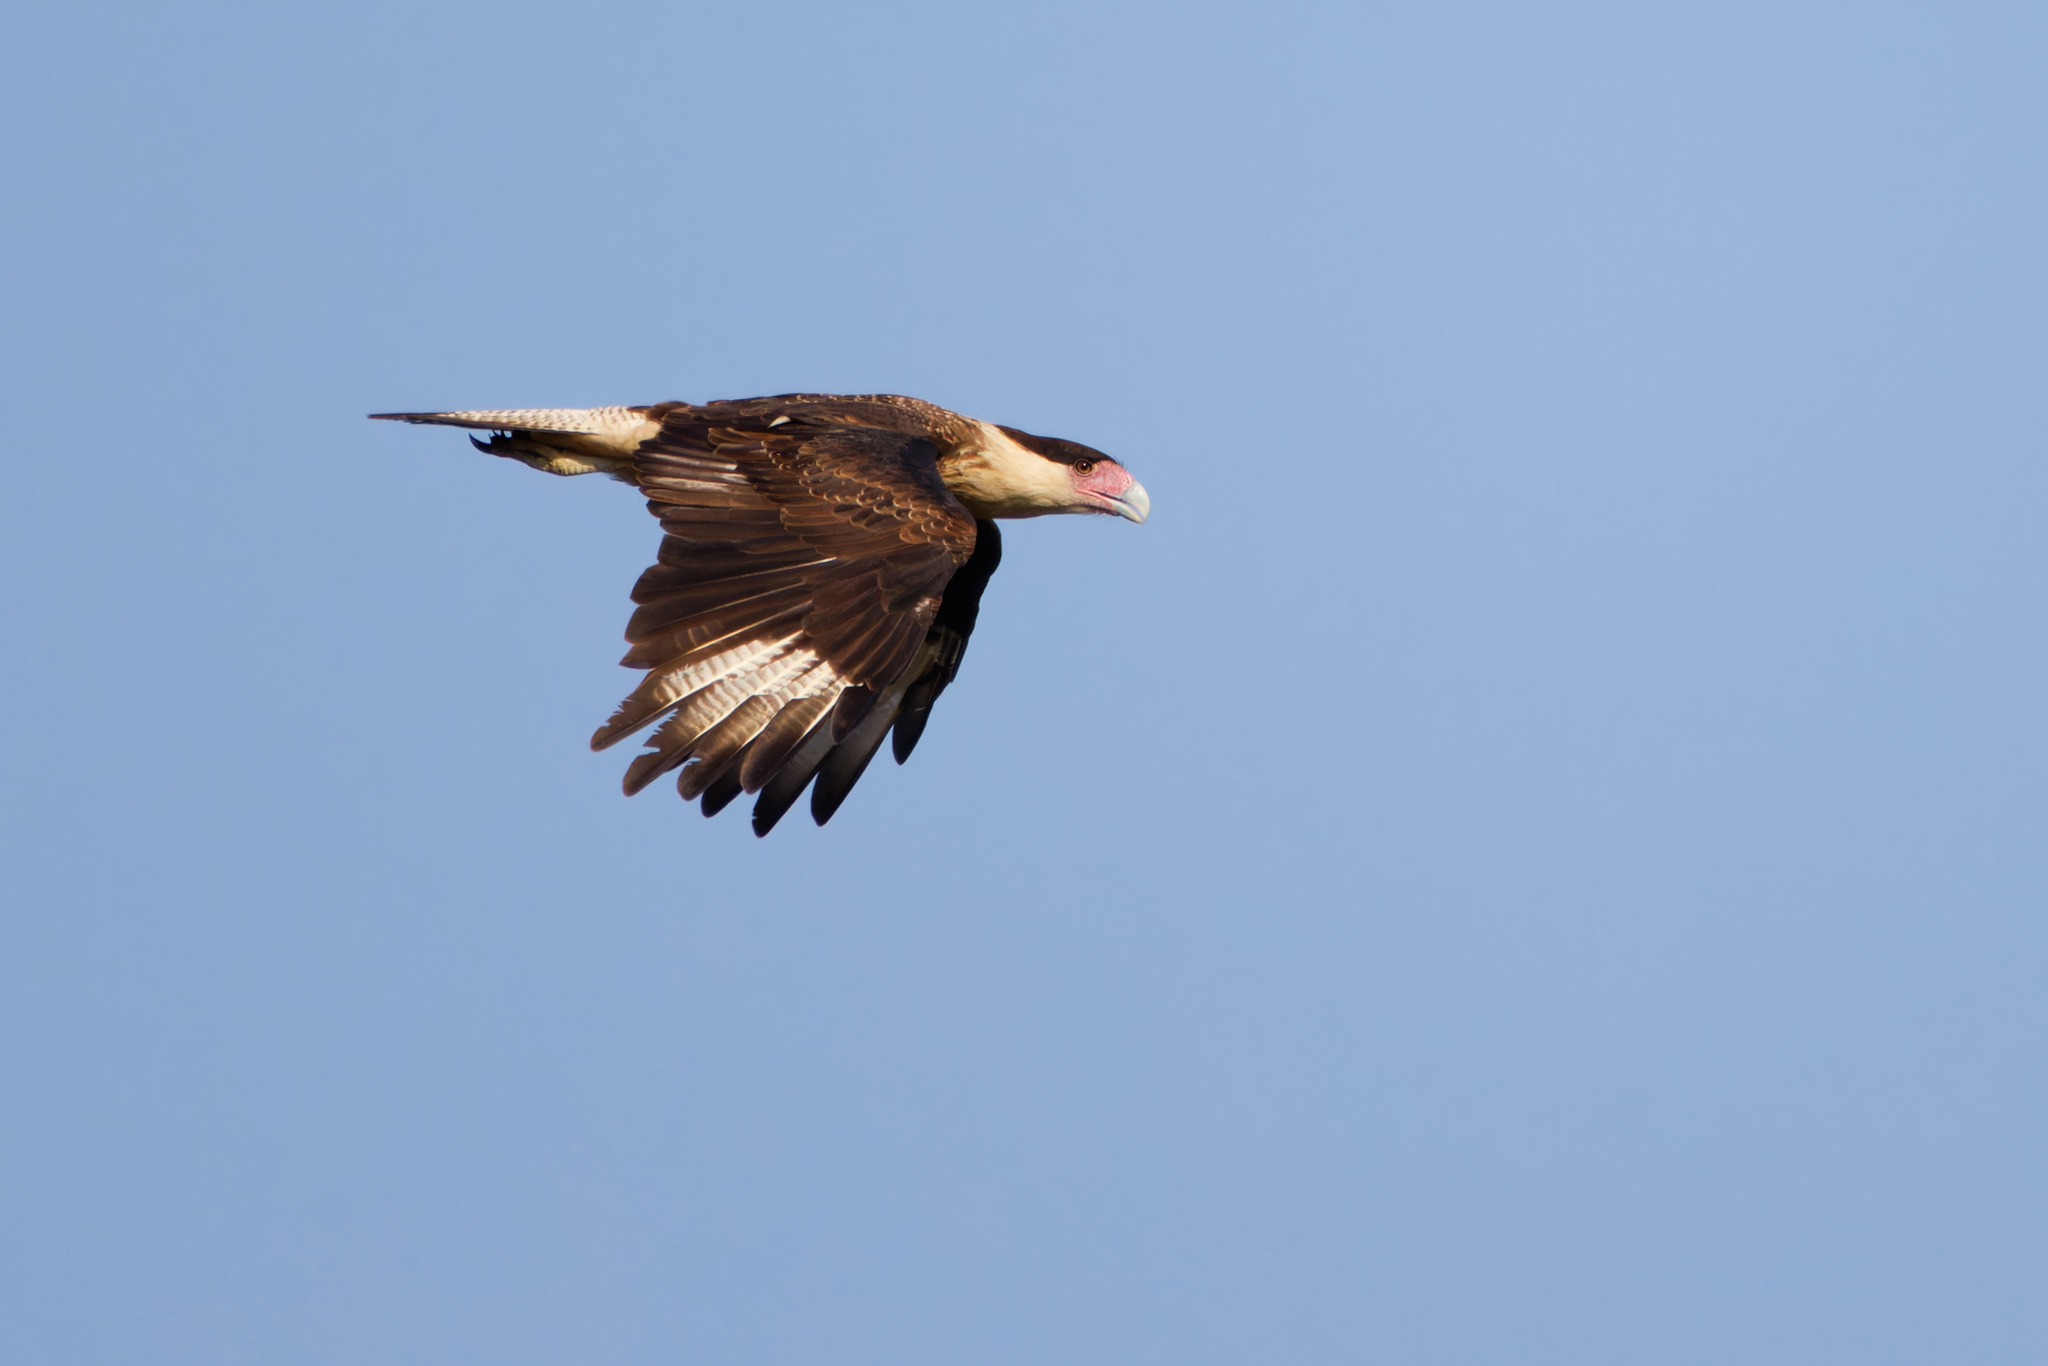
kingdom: Animalia
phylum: Chordata
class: Aves
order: Falconiformes
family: Falconidae
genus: Caracara
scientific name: Caracara plancus
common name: Southern caracara
